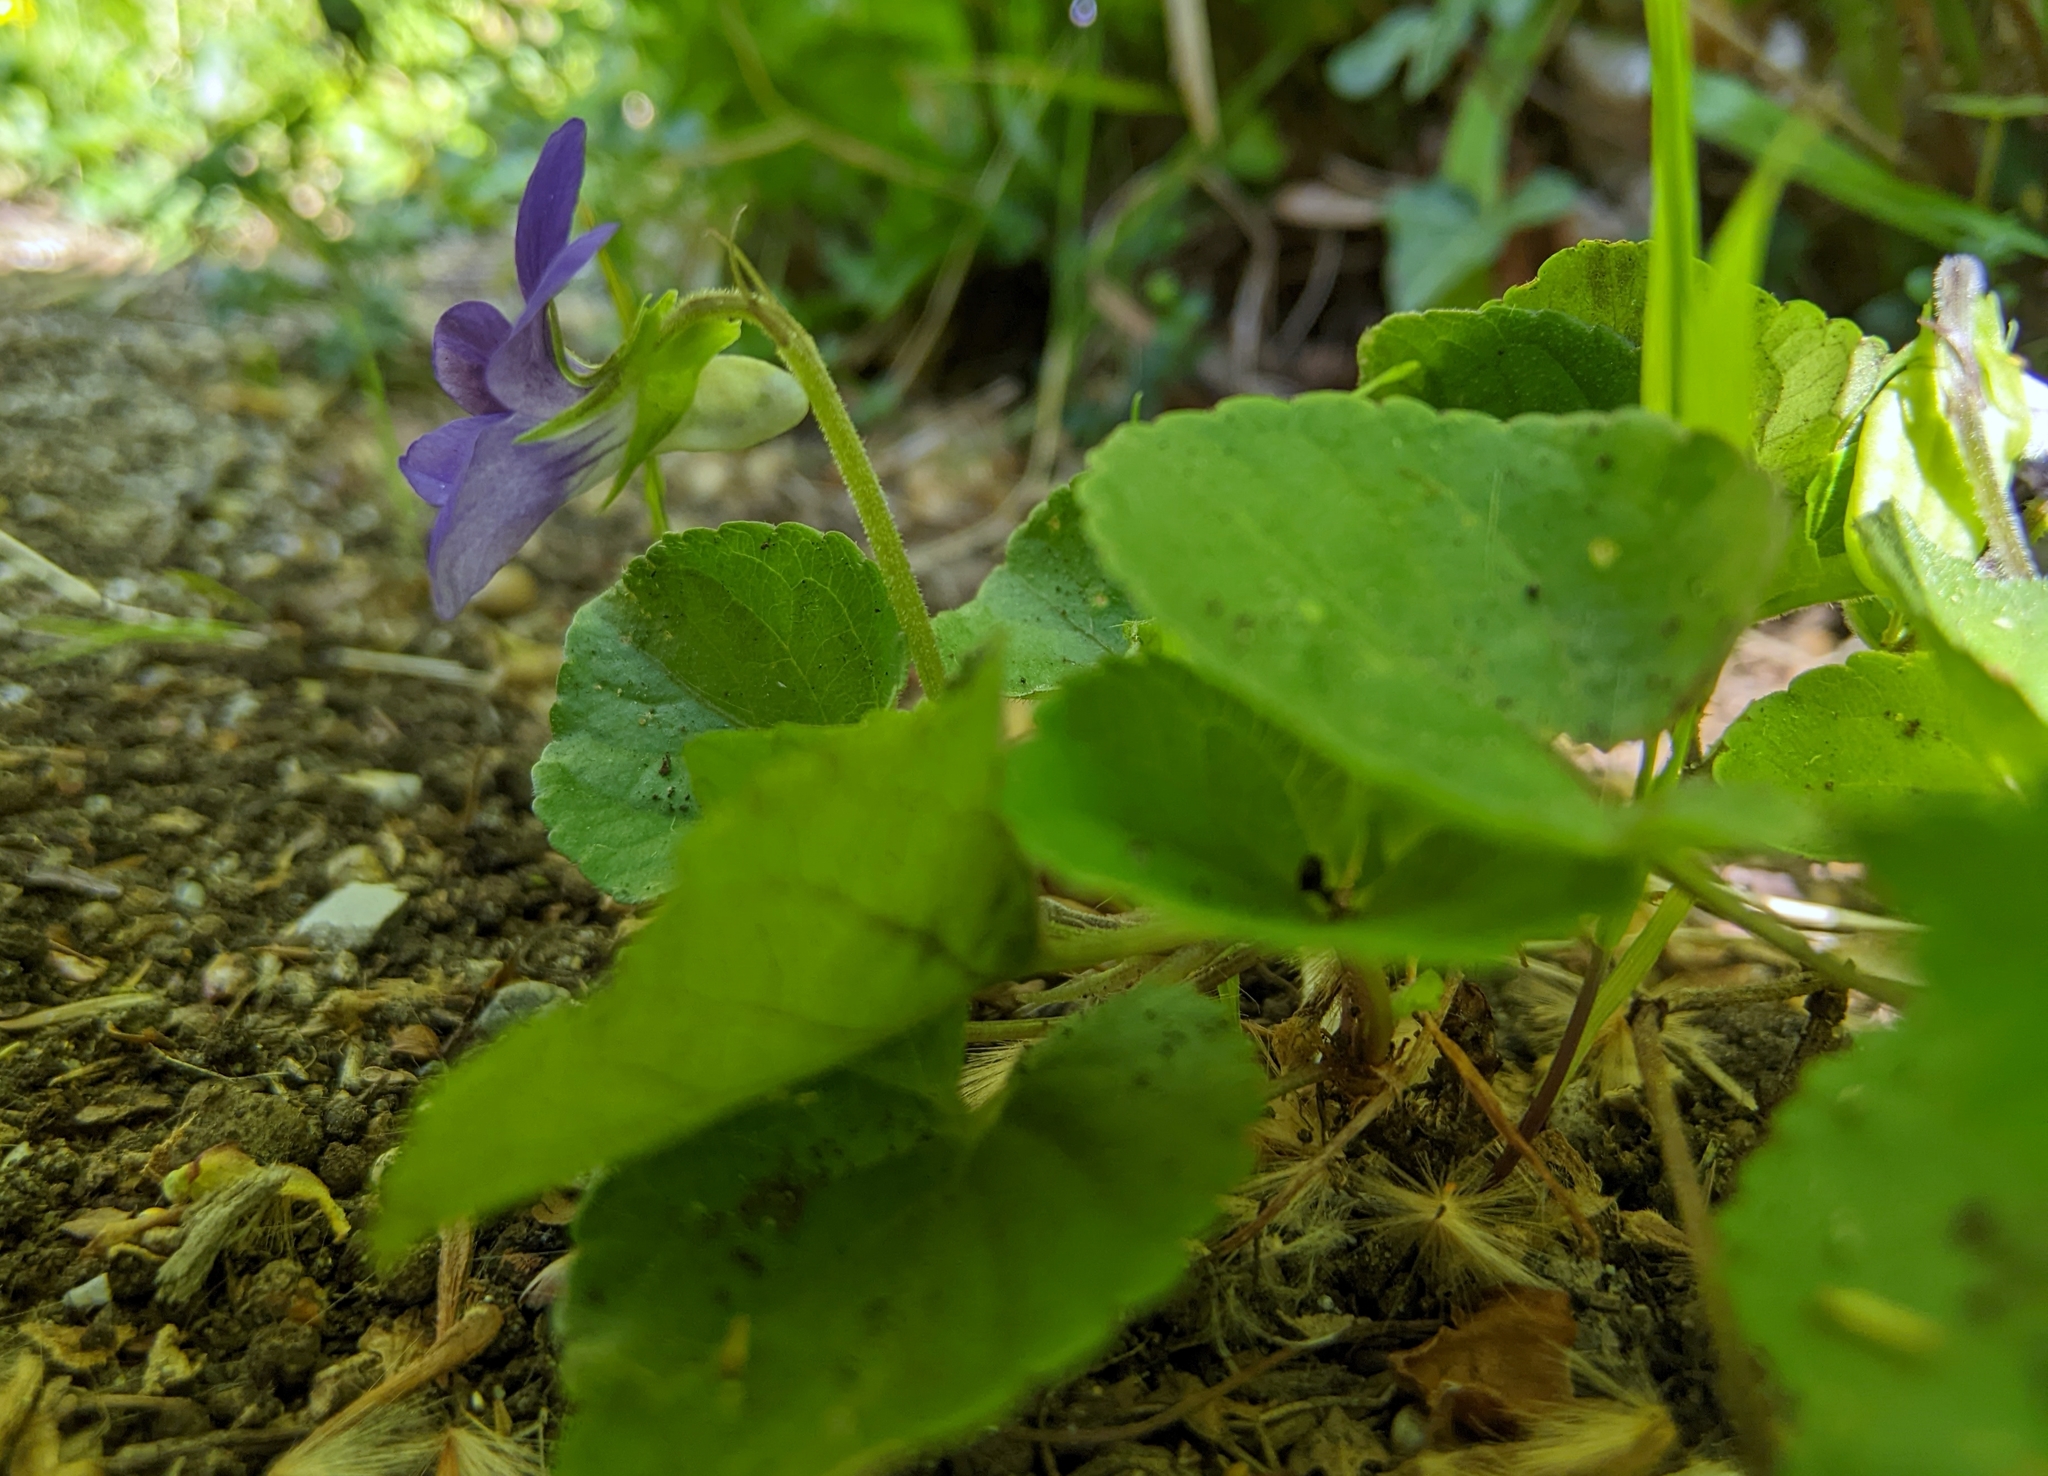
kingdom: Plantae
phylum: Tracheophyta
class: Magnoliopsida
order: Malpighiales
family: Violaceae
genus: Viola
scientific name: Viola riviniana
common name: Common dog-violet
